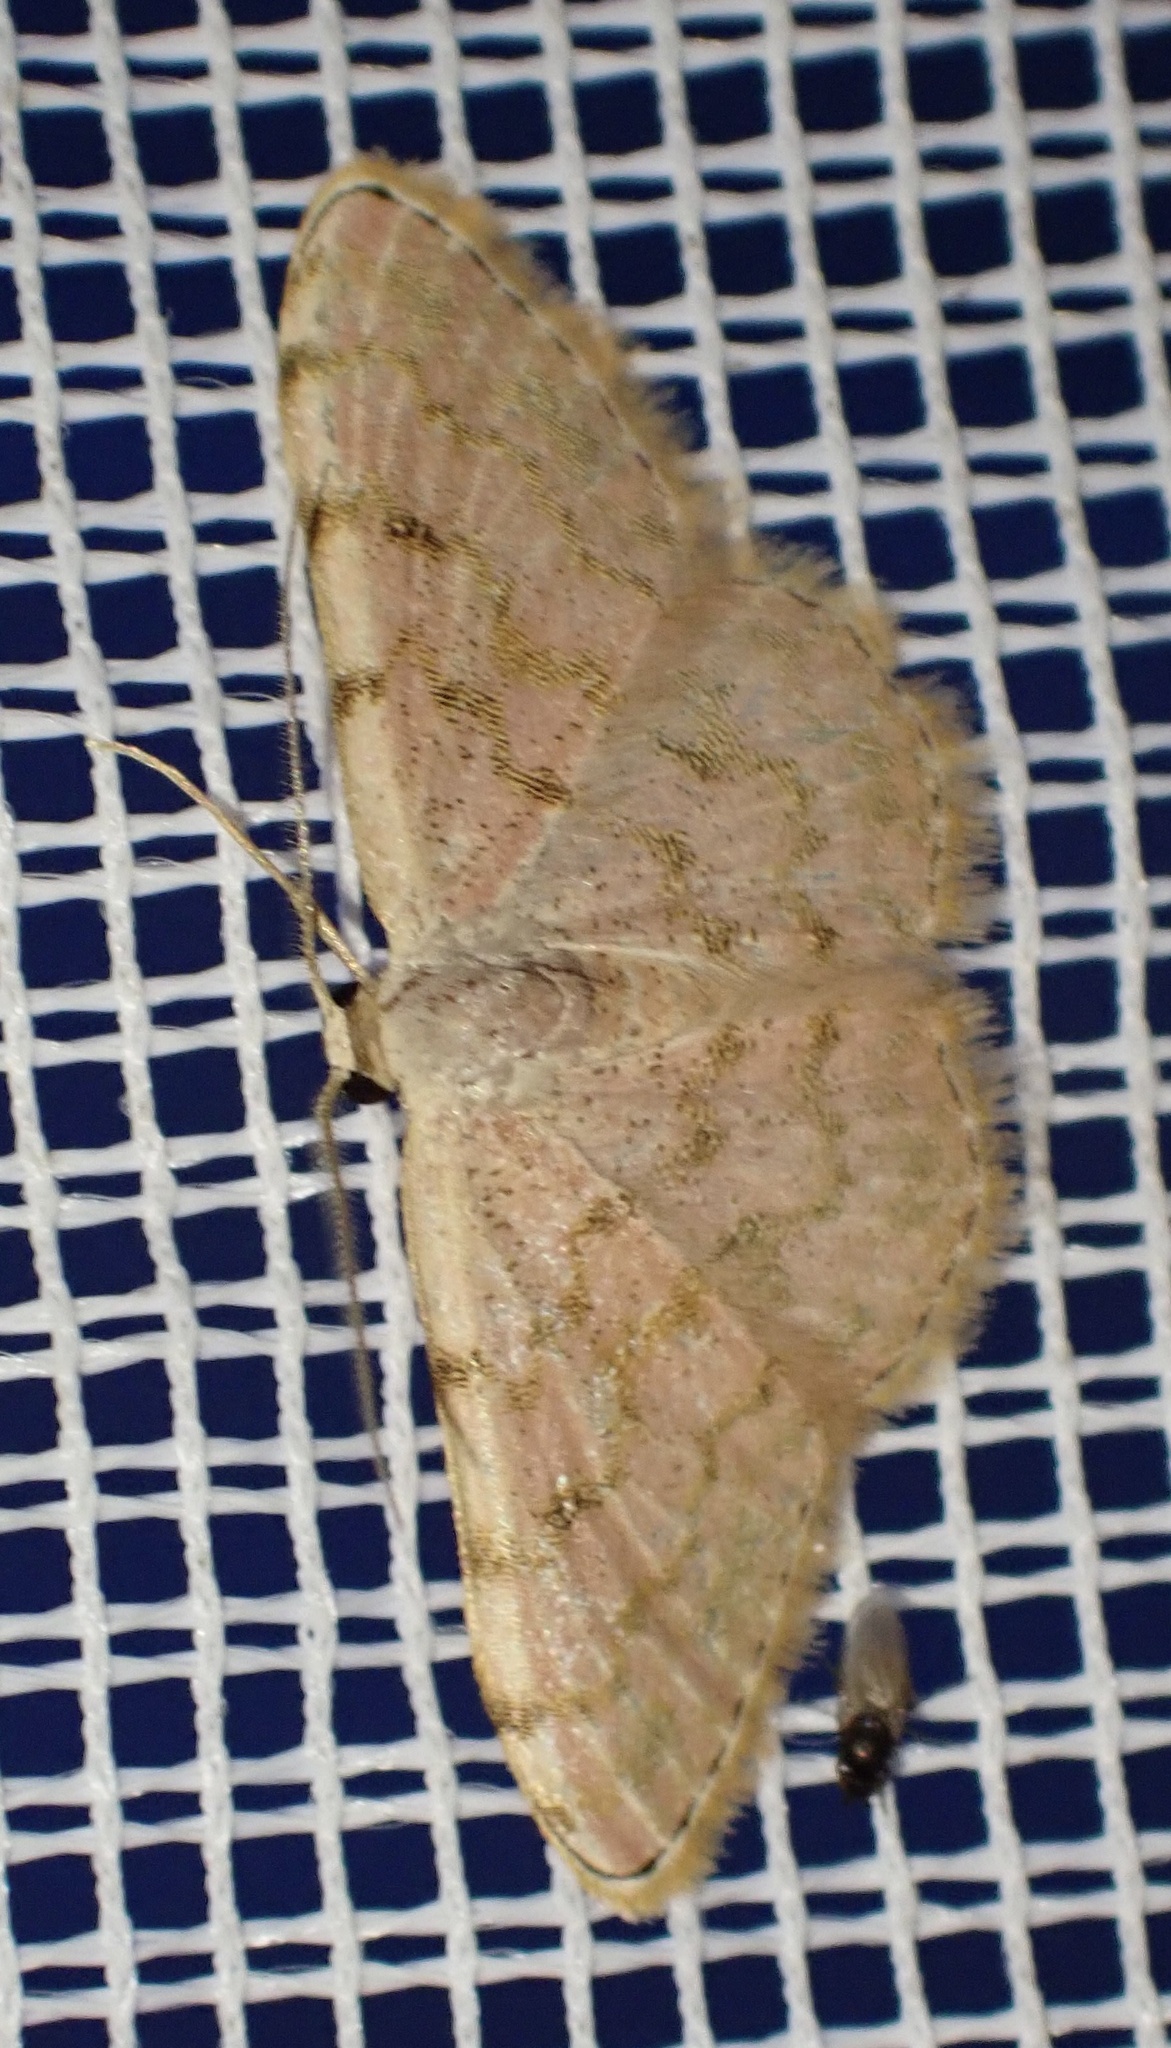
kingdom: Animalia
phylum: Arthropoda
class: Insecta
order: Lepidoptera
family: Geometridae
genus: Glossotrophia
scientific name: Glossotrophia asellaria
